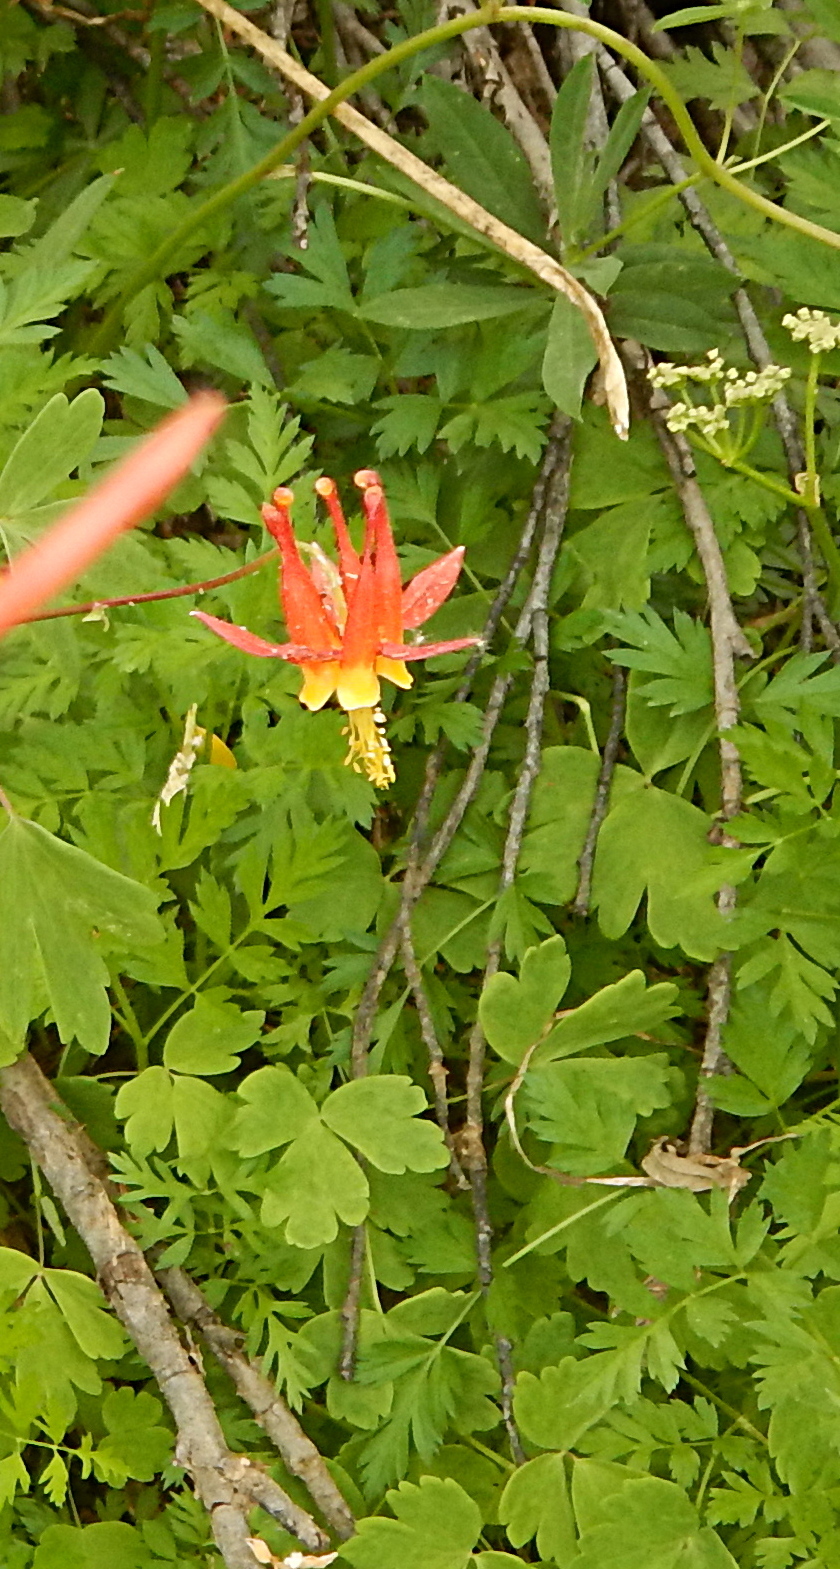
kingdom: Plantae
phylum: Tracheophyta
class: Magnoliopsida
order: Ranunculales
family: Ranunculaceae
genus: Aquilegia
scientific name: Aquilegia formosa
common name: Sitka columbine
